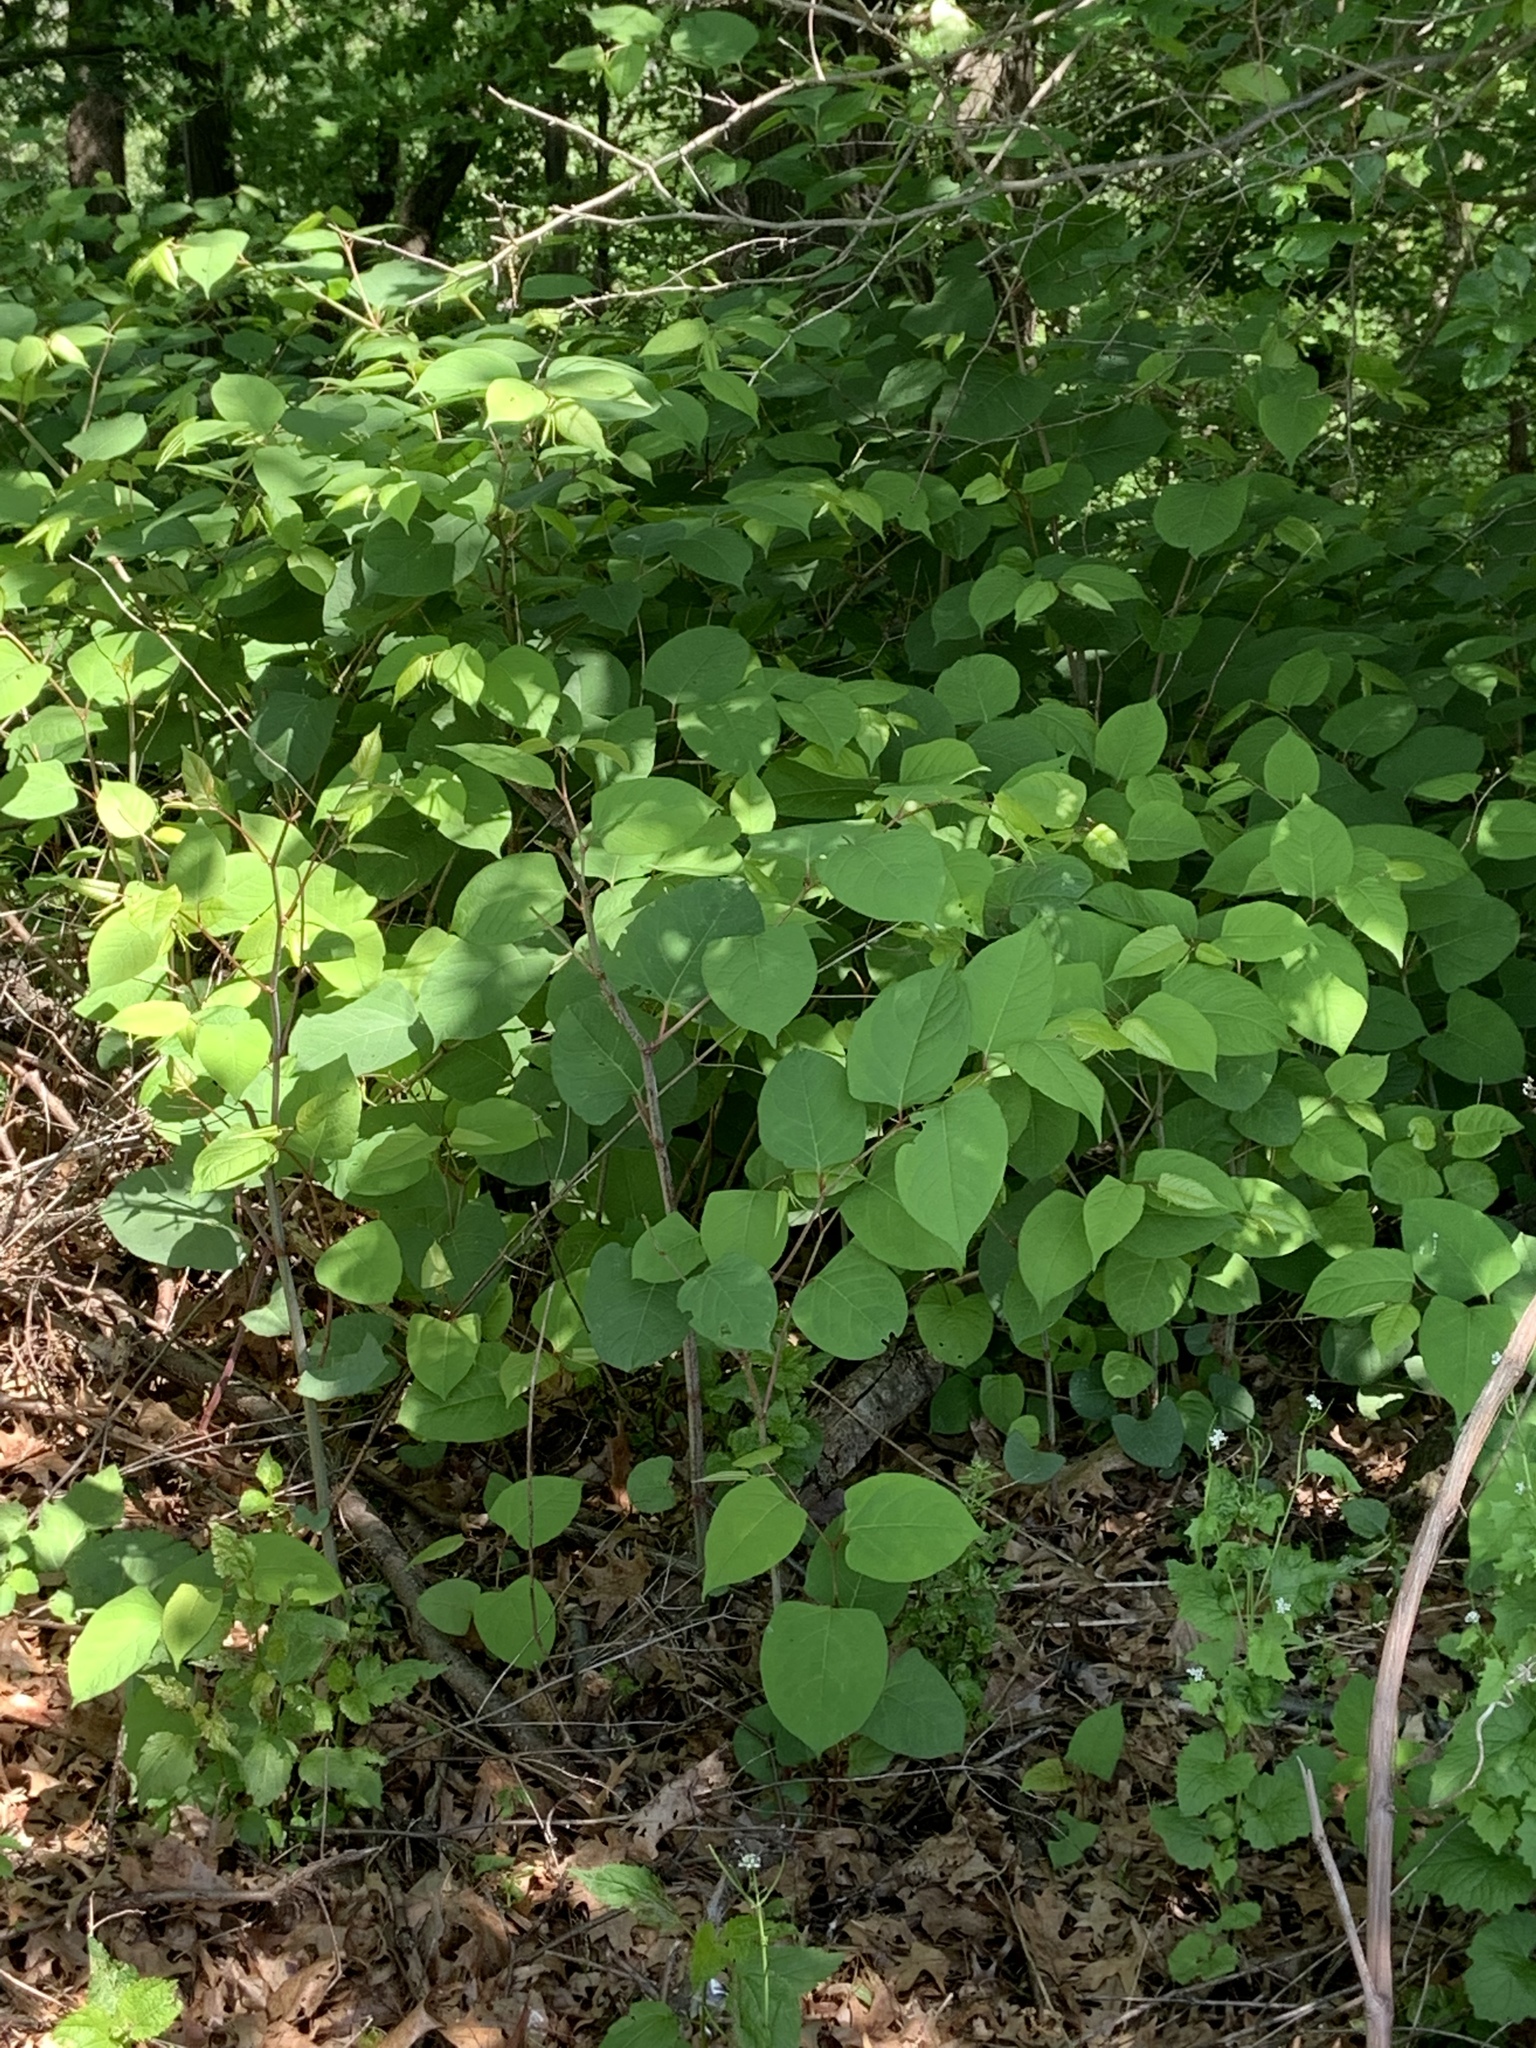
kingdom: Plantae
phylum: Tracheophyta
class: Magnoliopsida
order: Caryophyllales
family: Polygonaceae
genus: Reynoutria
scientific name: Reynoutria japonica
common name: Japanese knotweed
